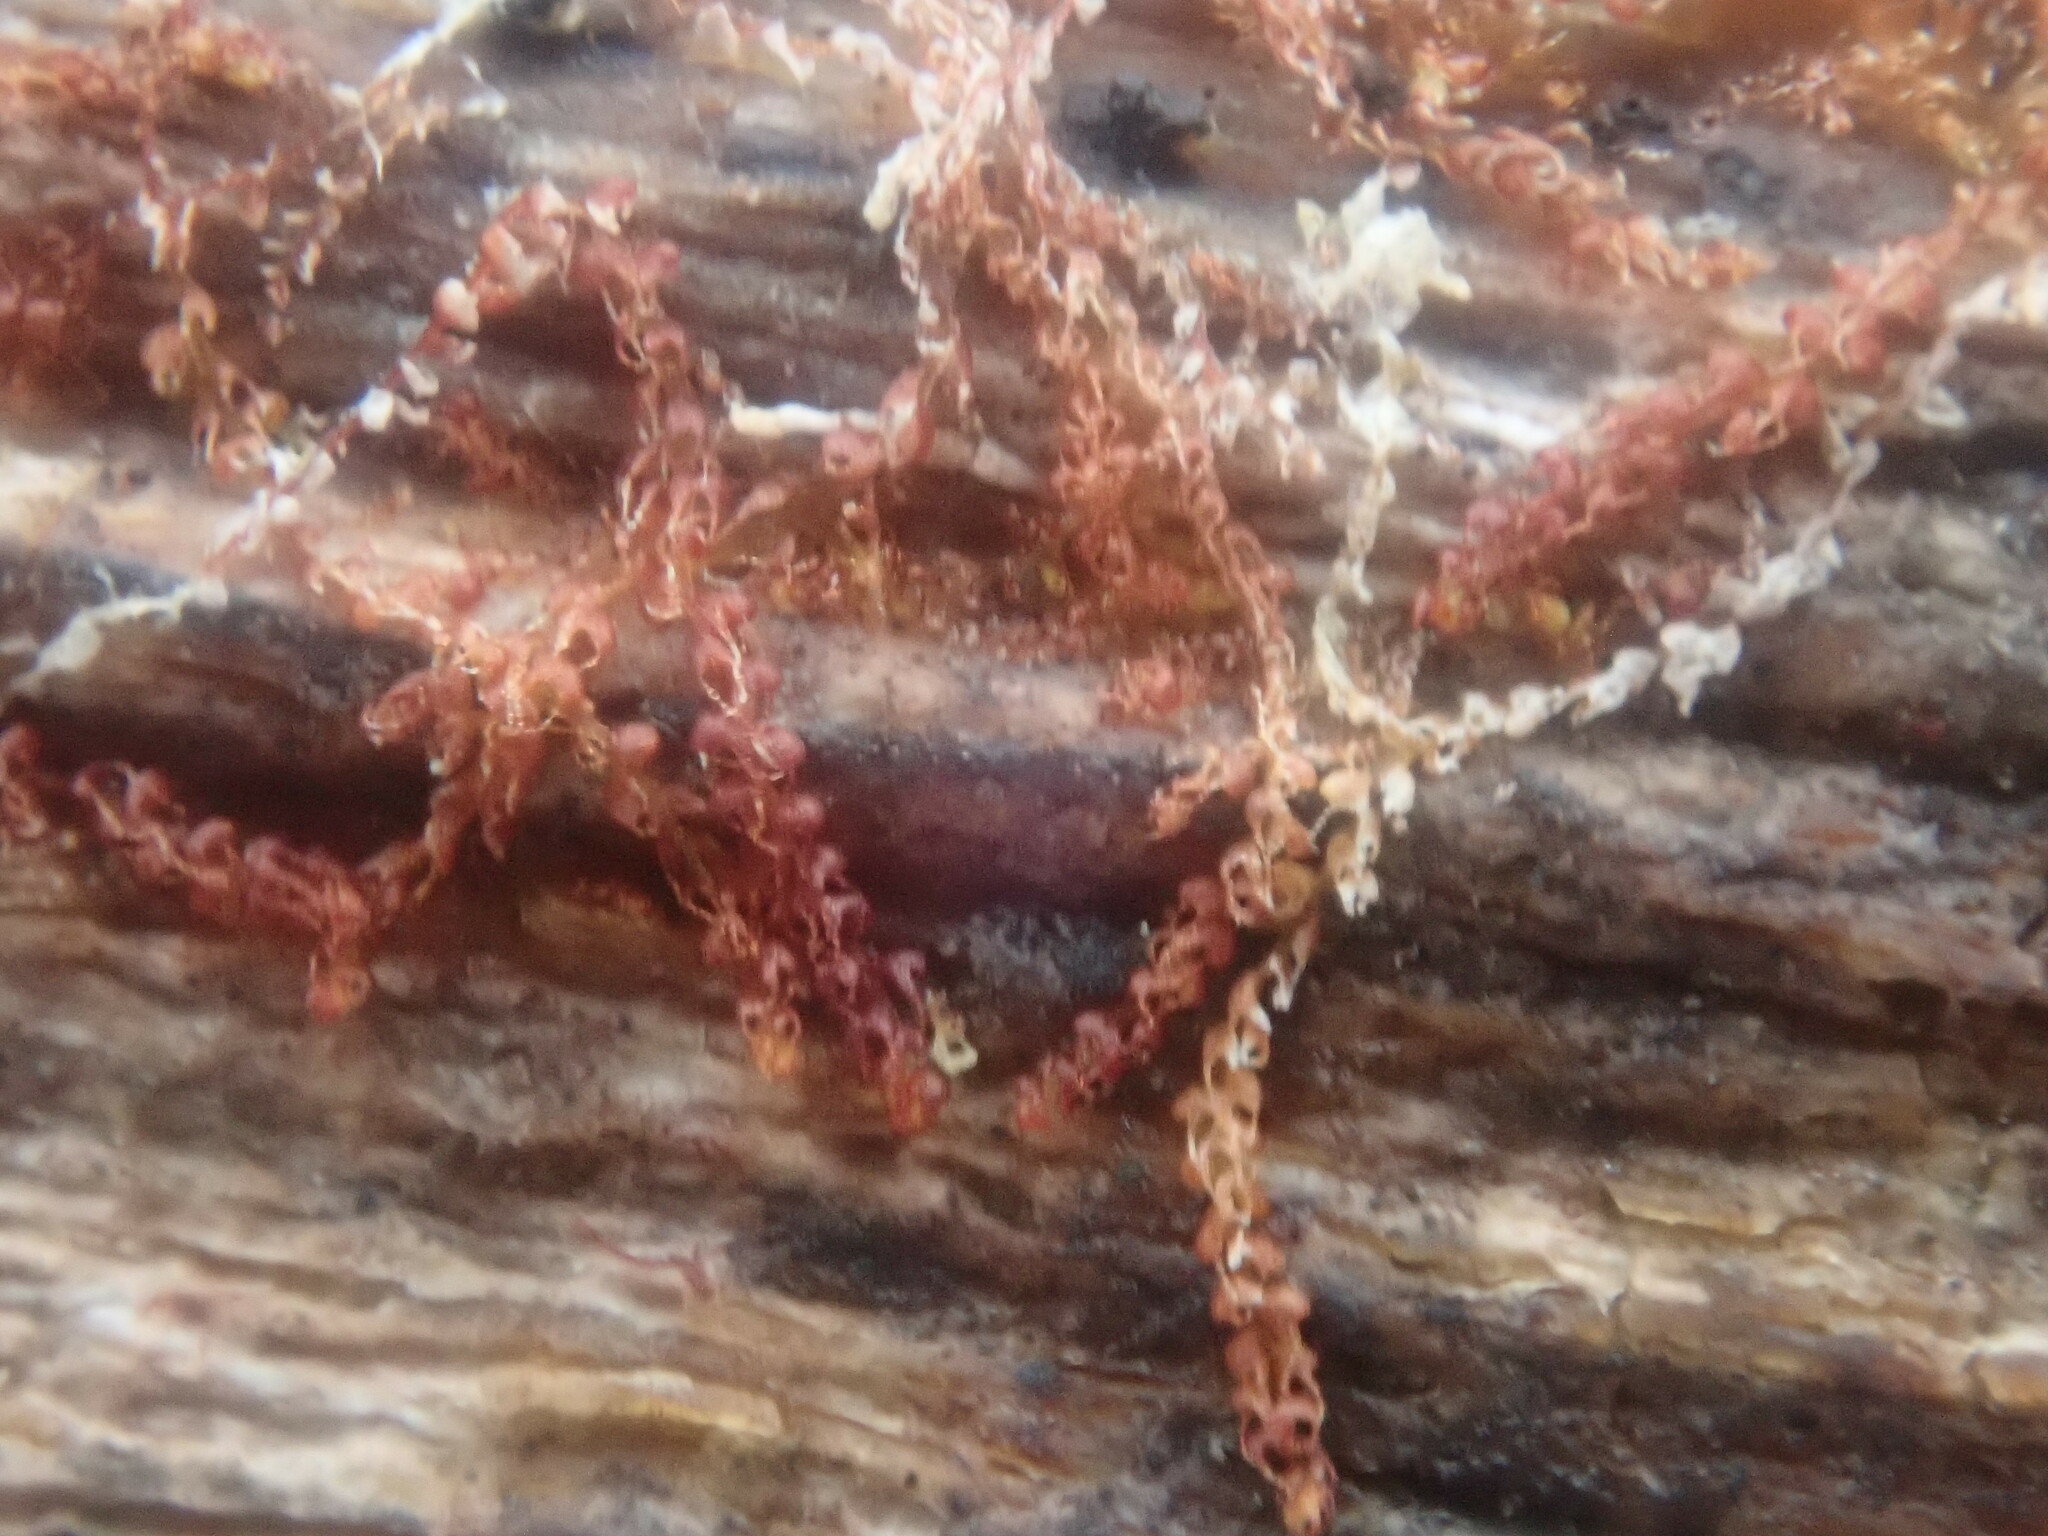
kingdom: Plantae
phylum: Marchantiophyta
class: Jungermanniopsida
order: Jungermanniales
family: Cephaloziaceae
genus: Nowellia
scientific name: Nowellia curvifolia
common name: Wood rustwort
